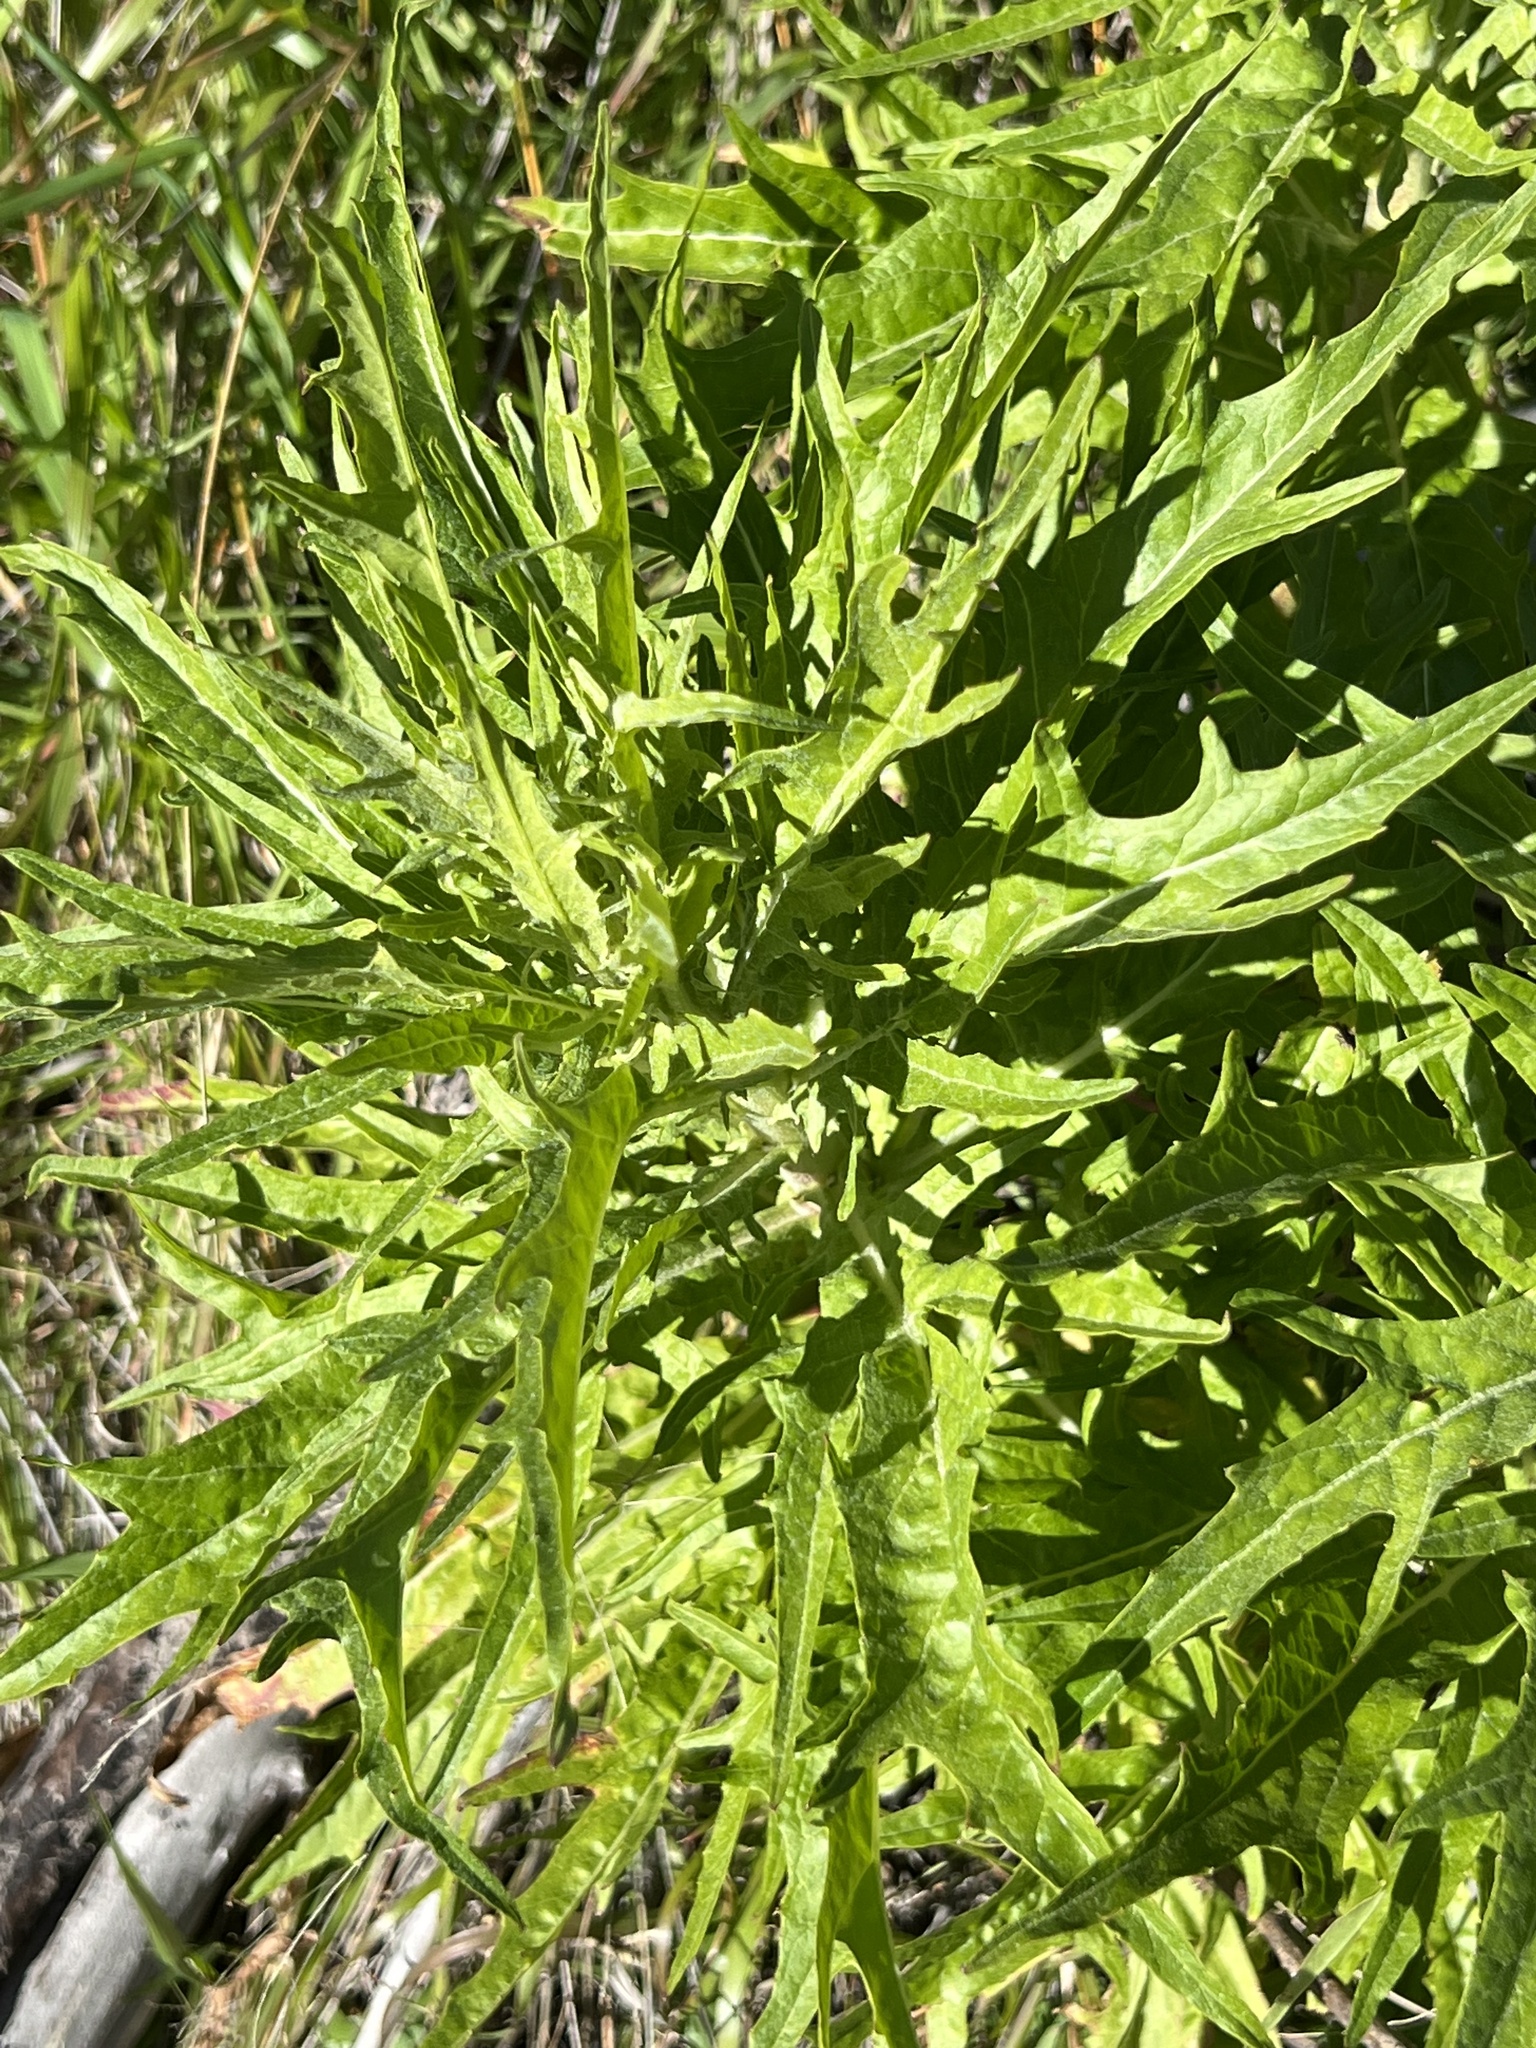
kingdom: Plantae
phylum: Tracheophyta
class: Magnoliopsida
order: Asterales
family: Asteraceae
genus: Malacothrix
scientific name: Malacothrix saxatilis
